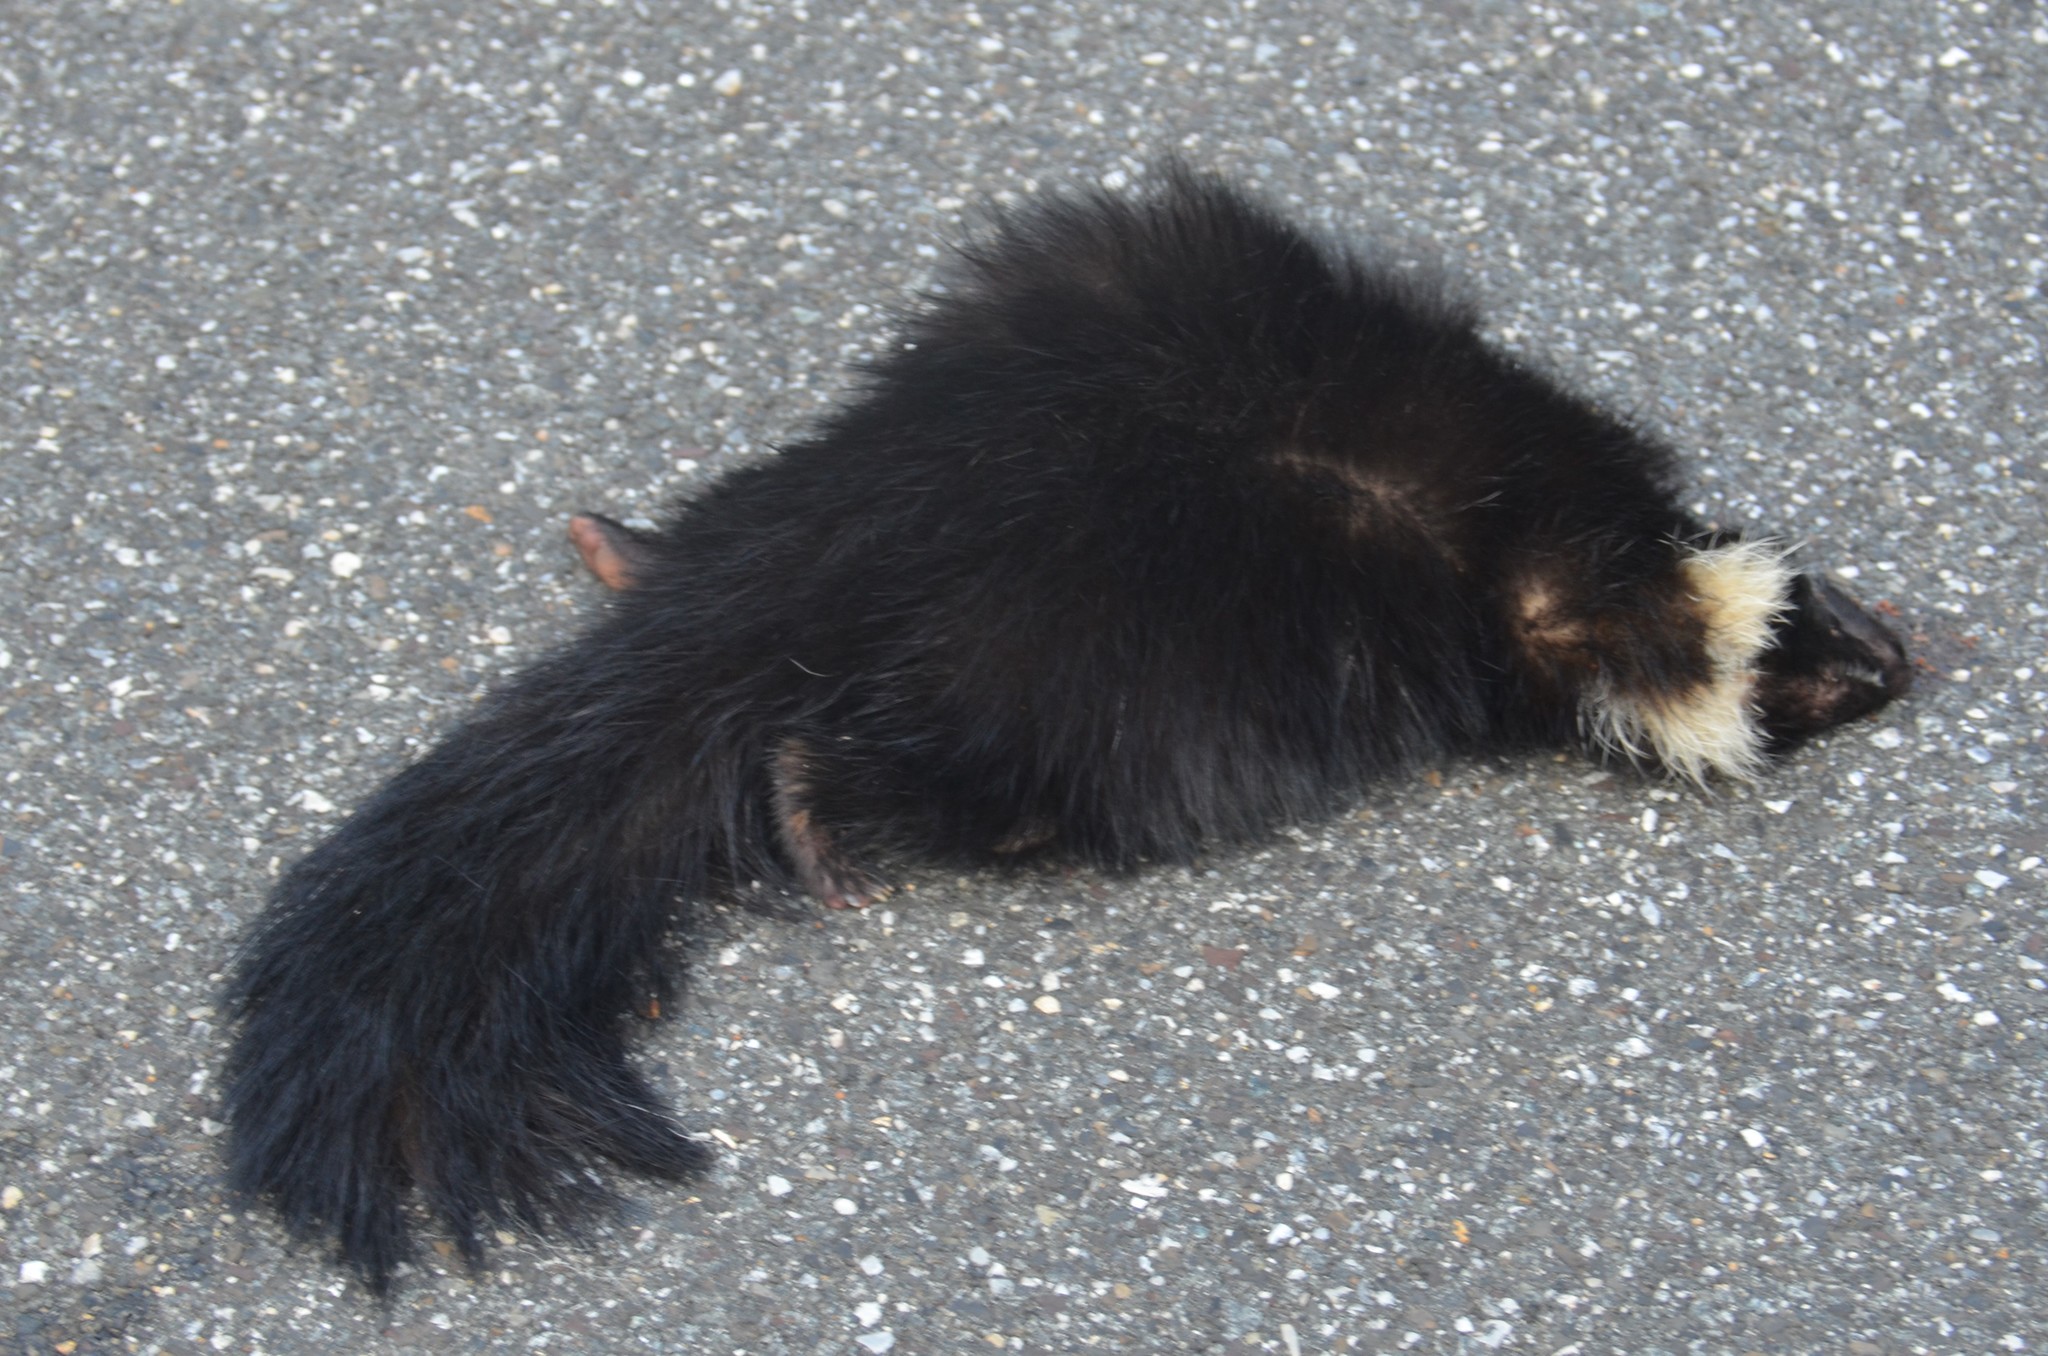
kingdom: Animalia
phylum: Chordata
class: Mammalia
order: Carnivora
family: Mephitidae
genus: Mephitis
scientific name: Mephitis mephitis
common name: Striped skunk
